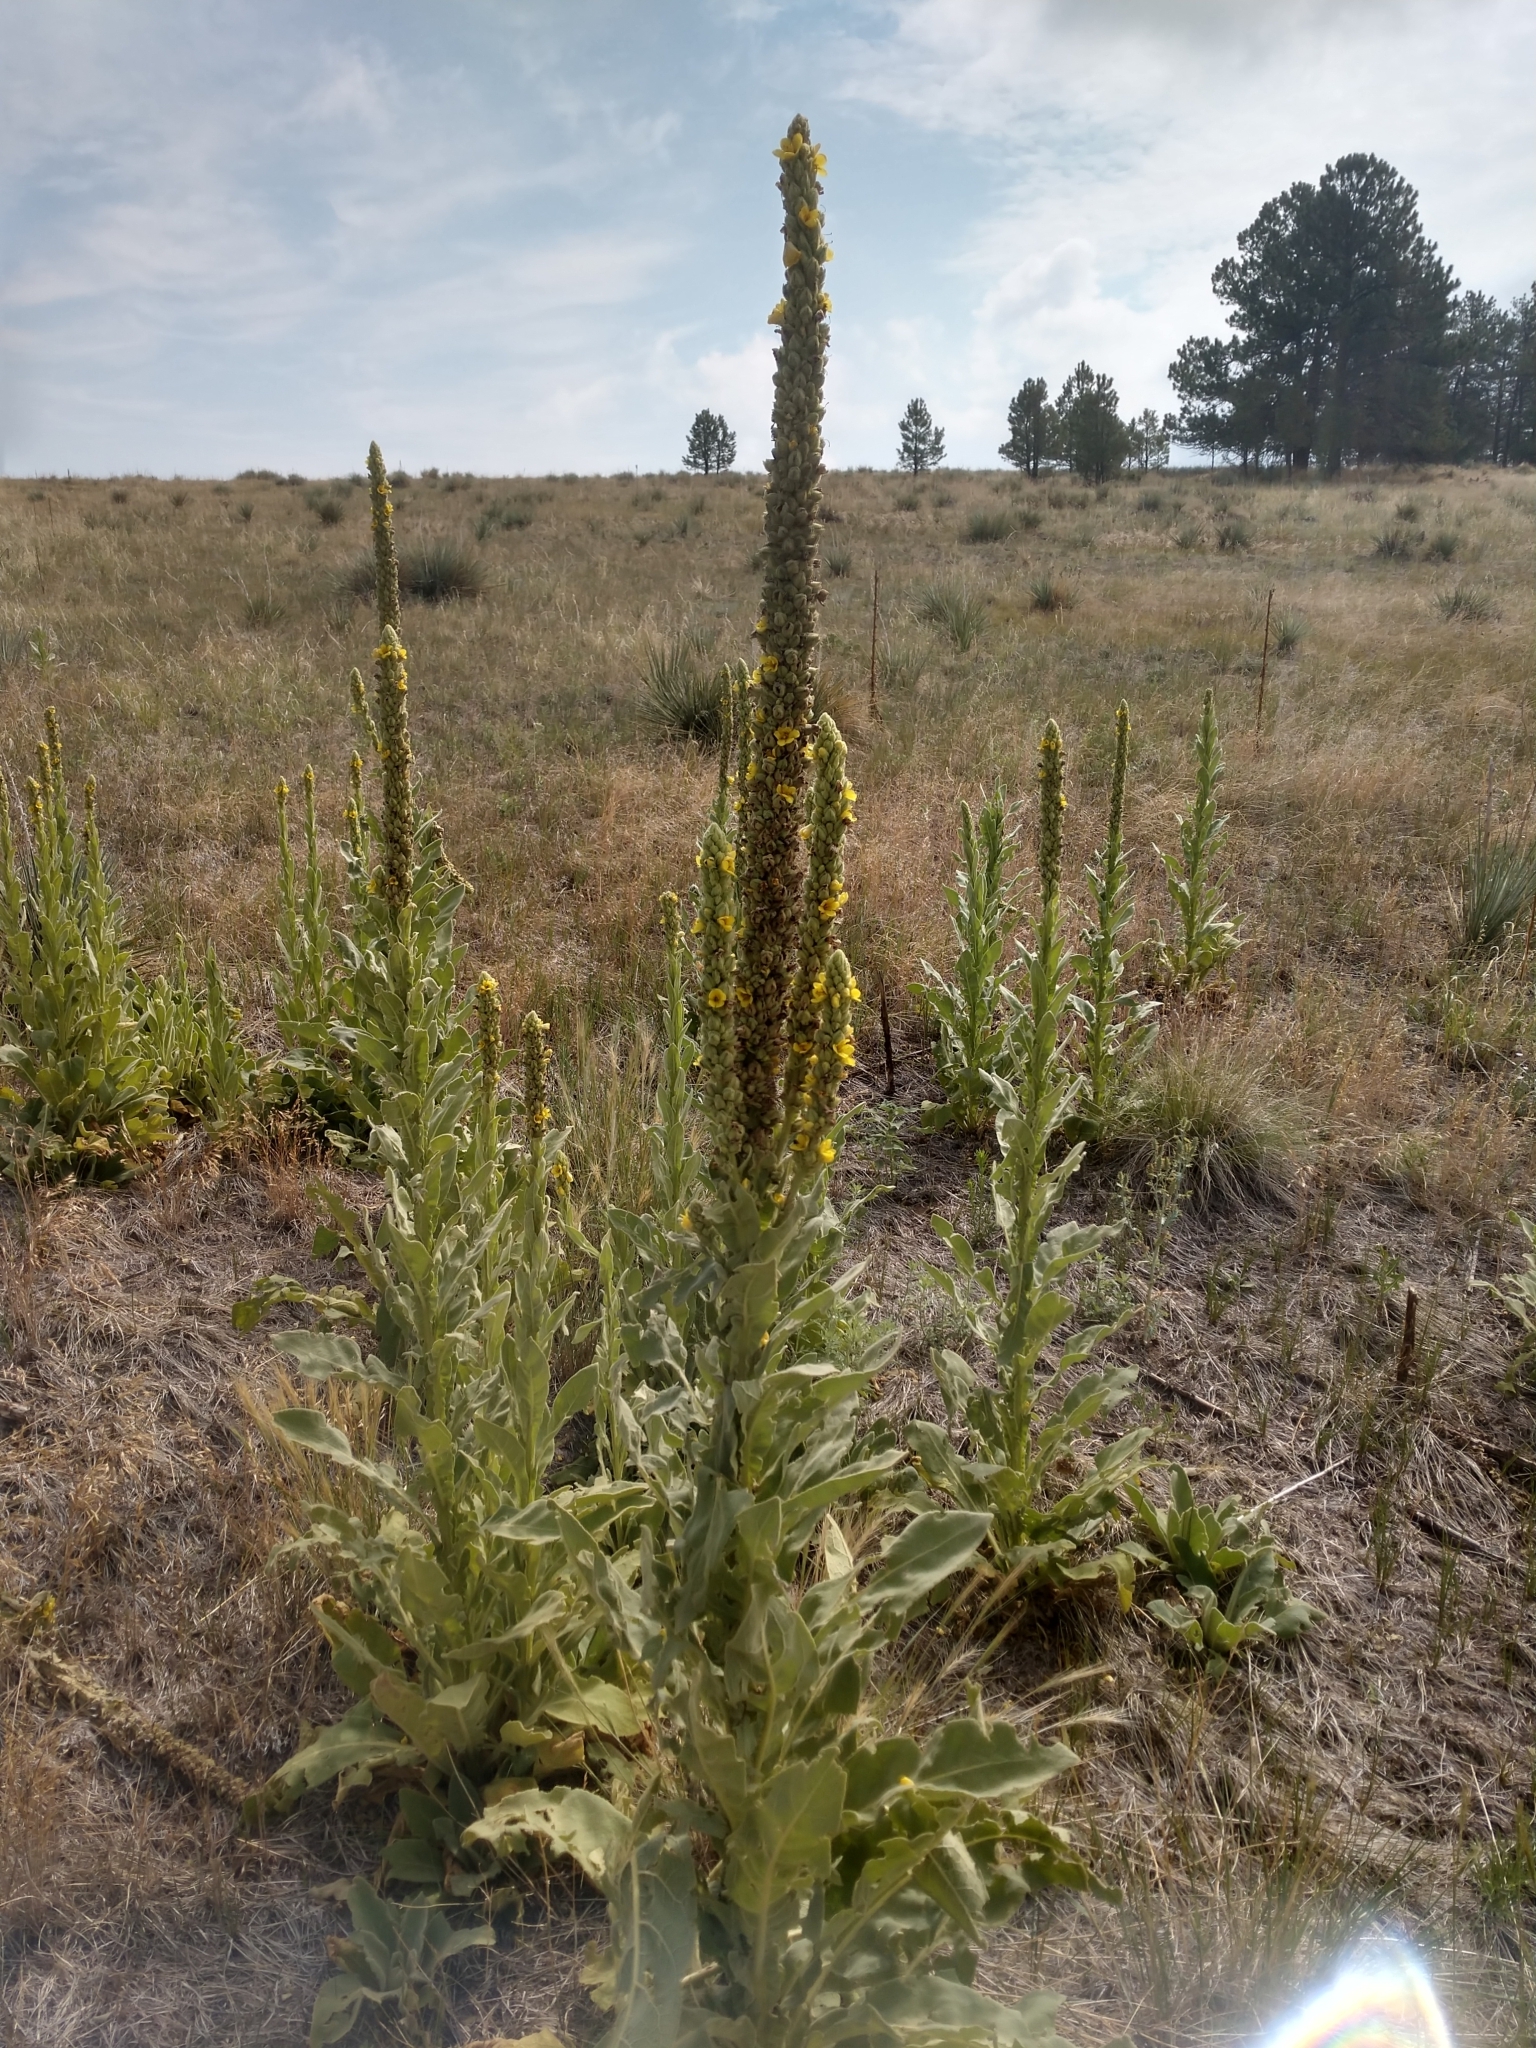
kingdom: Plantae
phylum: Tracheophyta
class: Magnoliopsida
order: Lamiales
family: Scrophulariaceae
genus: Verbascum
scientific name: Verbascum thapsus
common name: Common mullein
